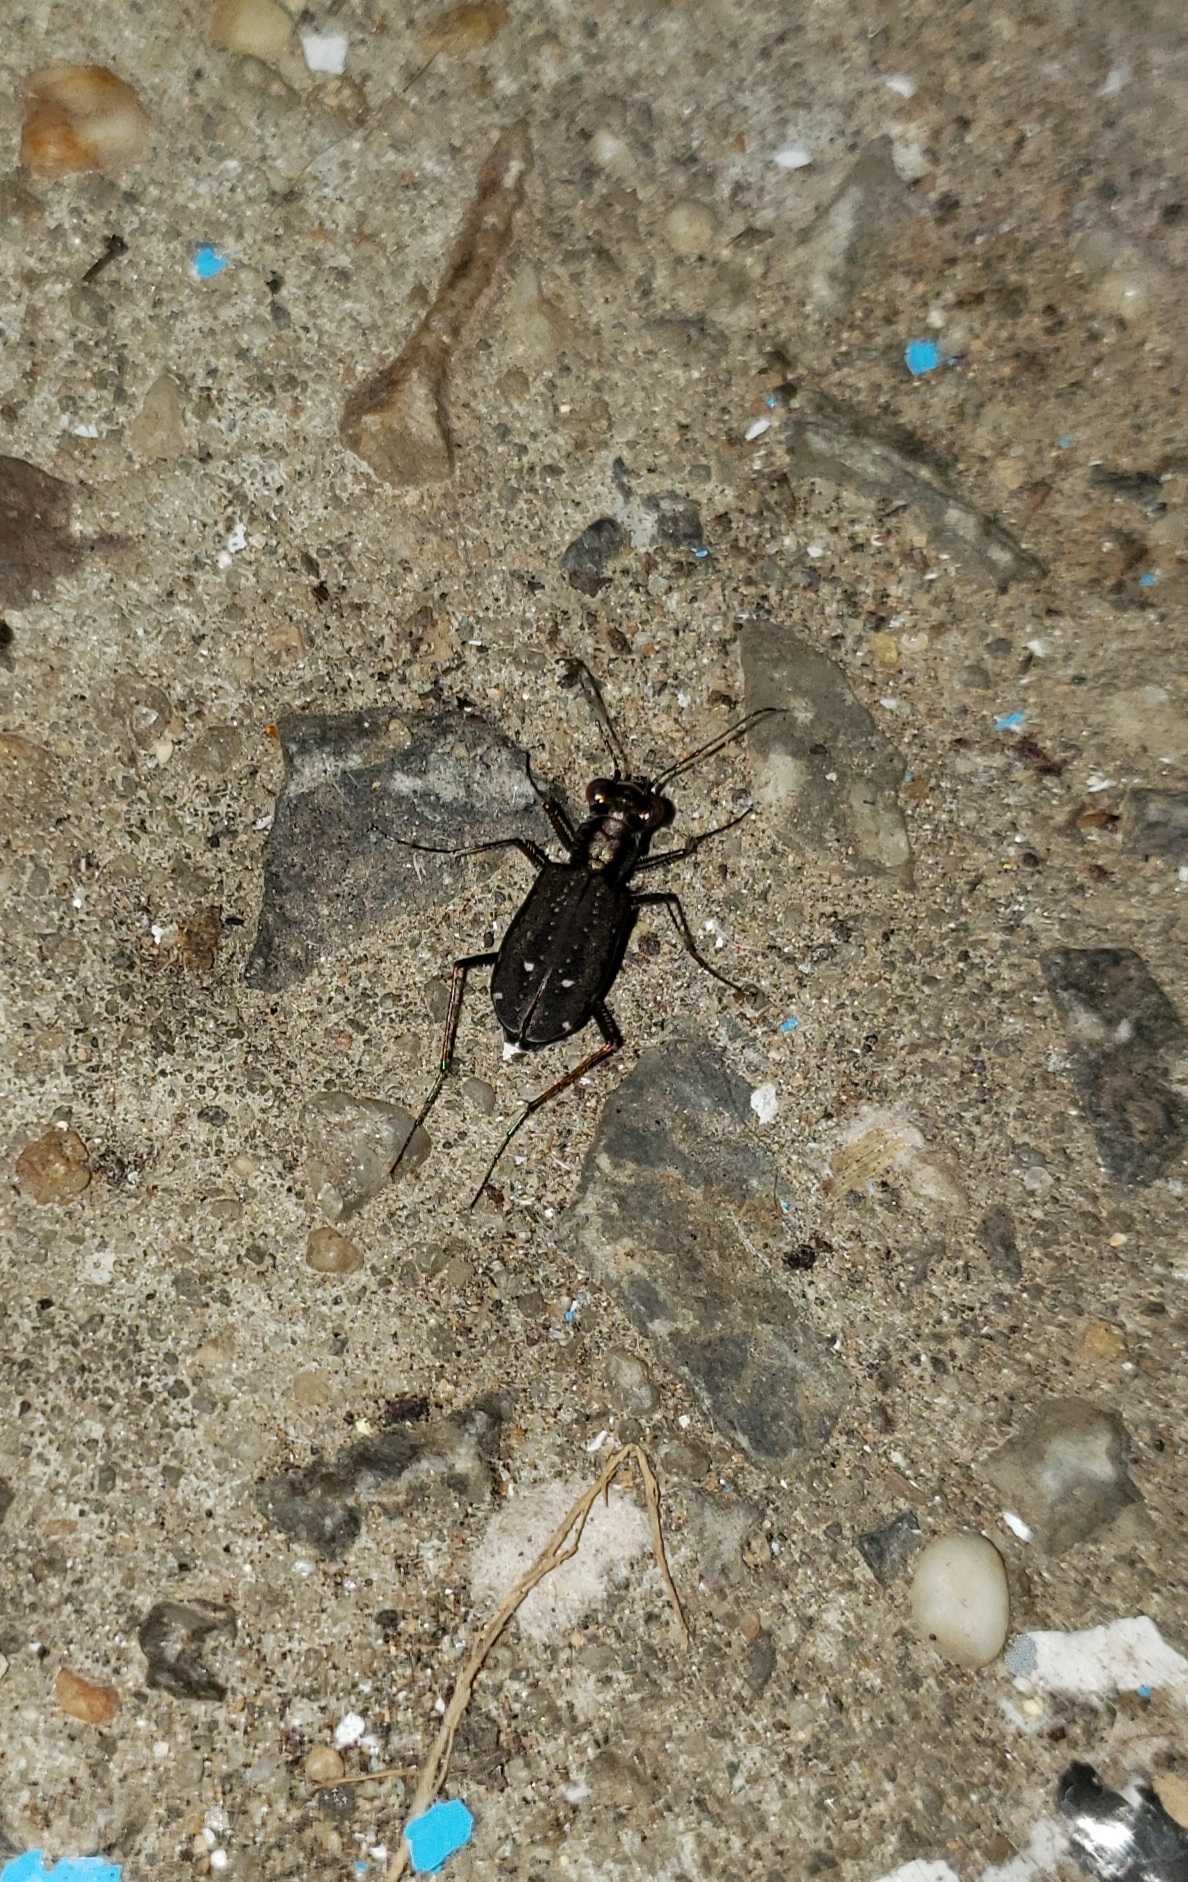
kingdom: Animalia
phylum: Arthropoda
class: Insecta
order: Coleoptera
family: Carabidae
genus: Cicindela
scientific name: Cicindela punctulata
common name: Punctured tiger beetle
